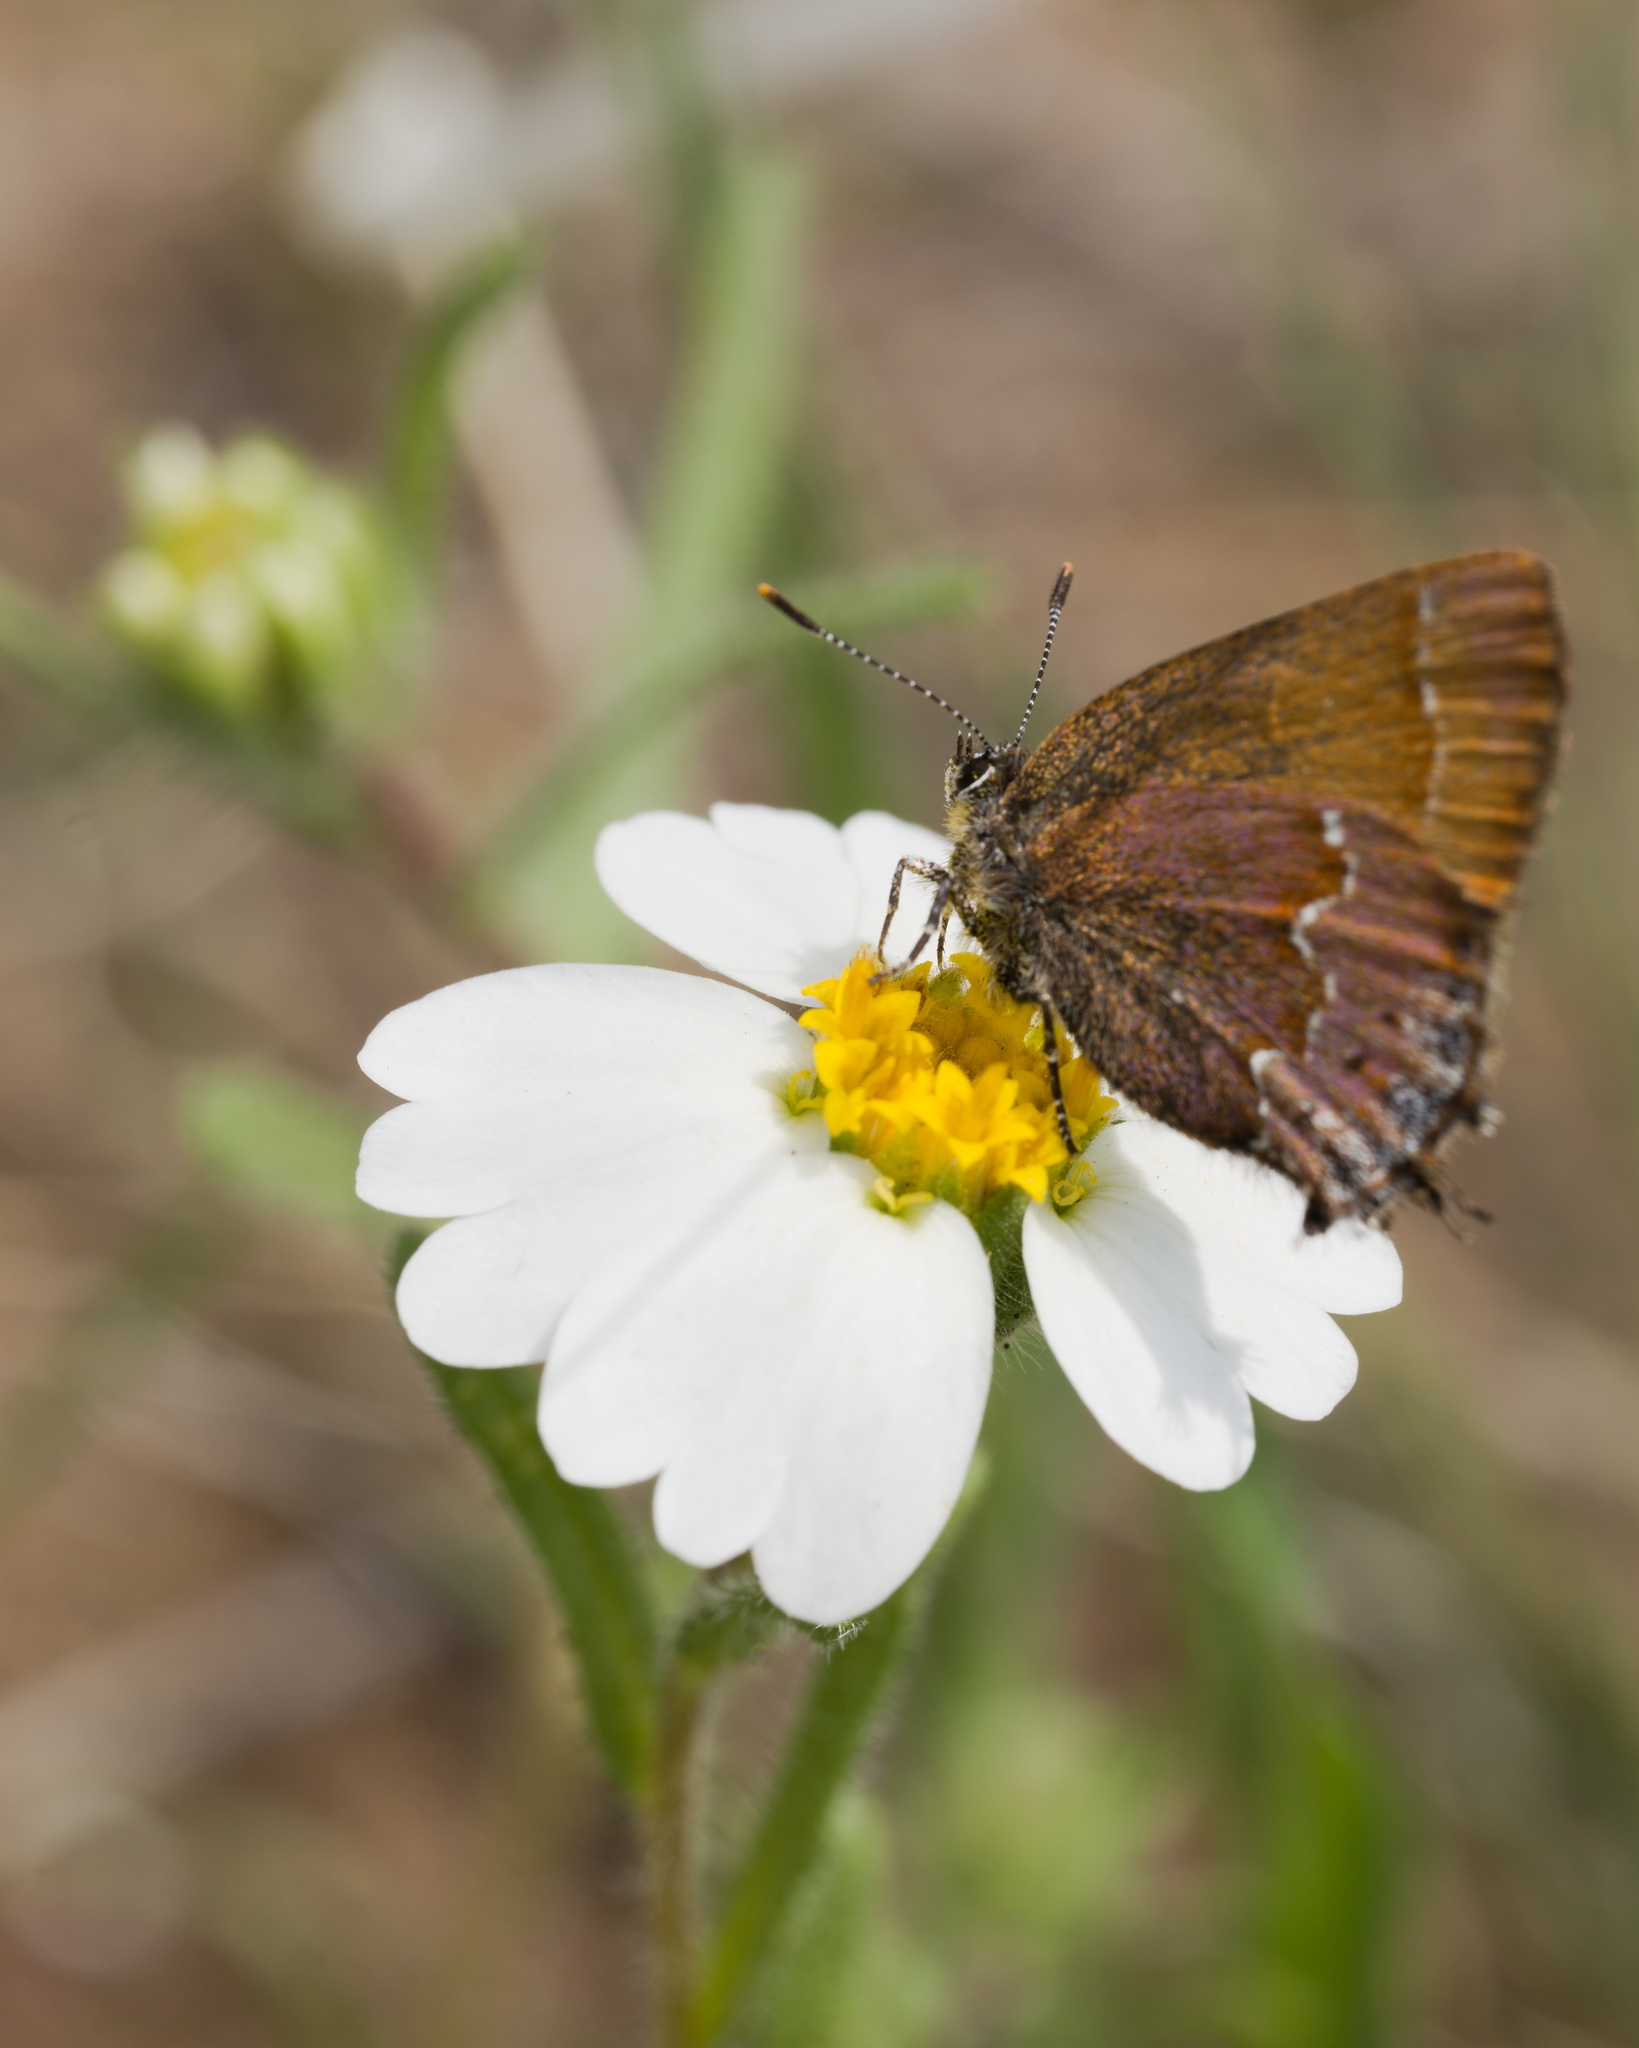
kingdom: Animalia
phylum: Arthropoda
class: Insecta
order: Lepidoptera
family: Lycaenidae
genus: Mitoura
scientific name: Mitoura gryneus
